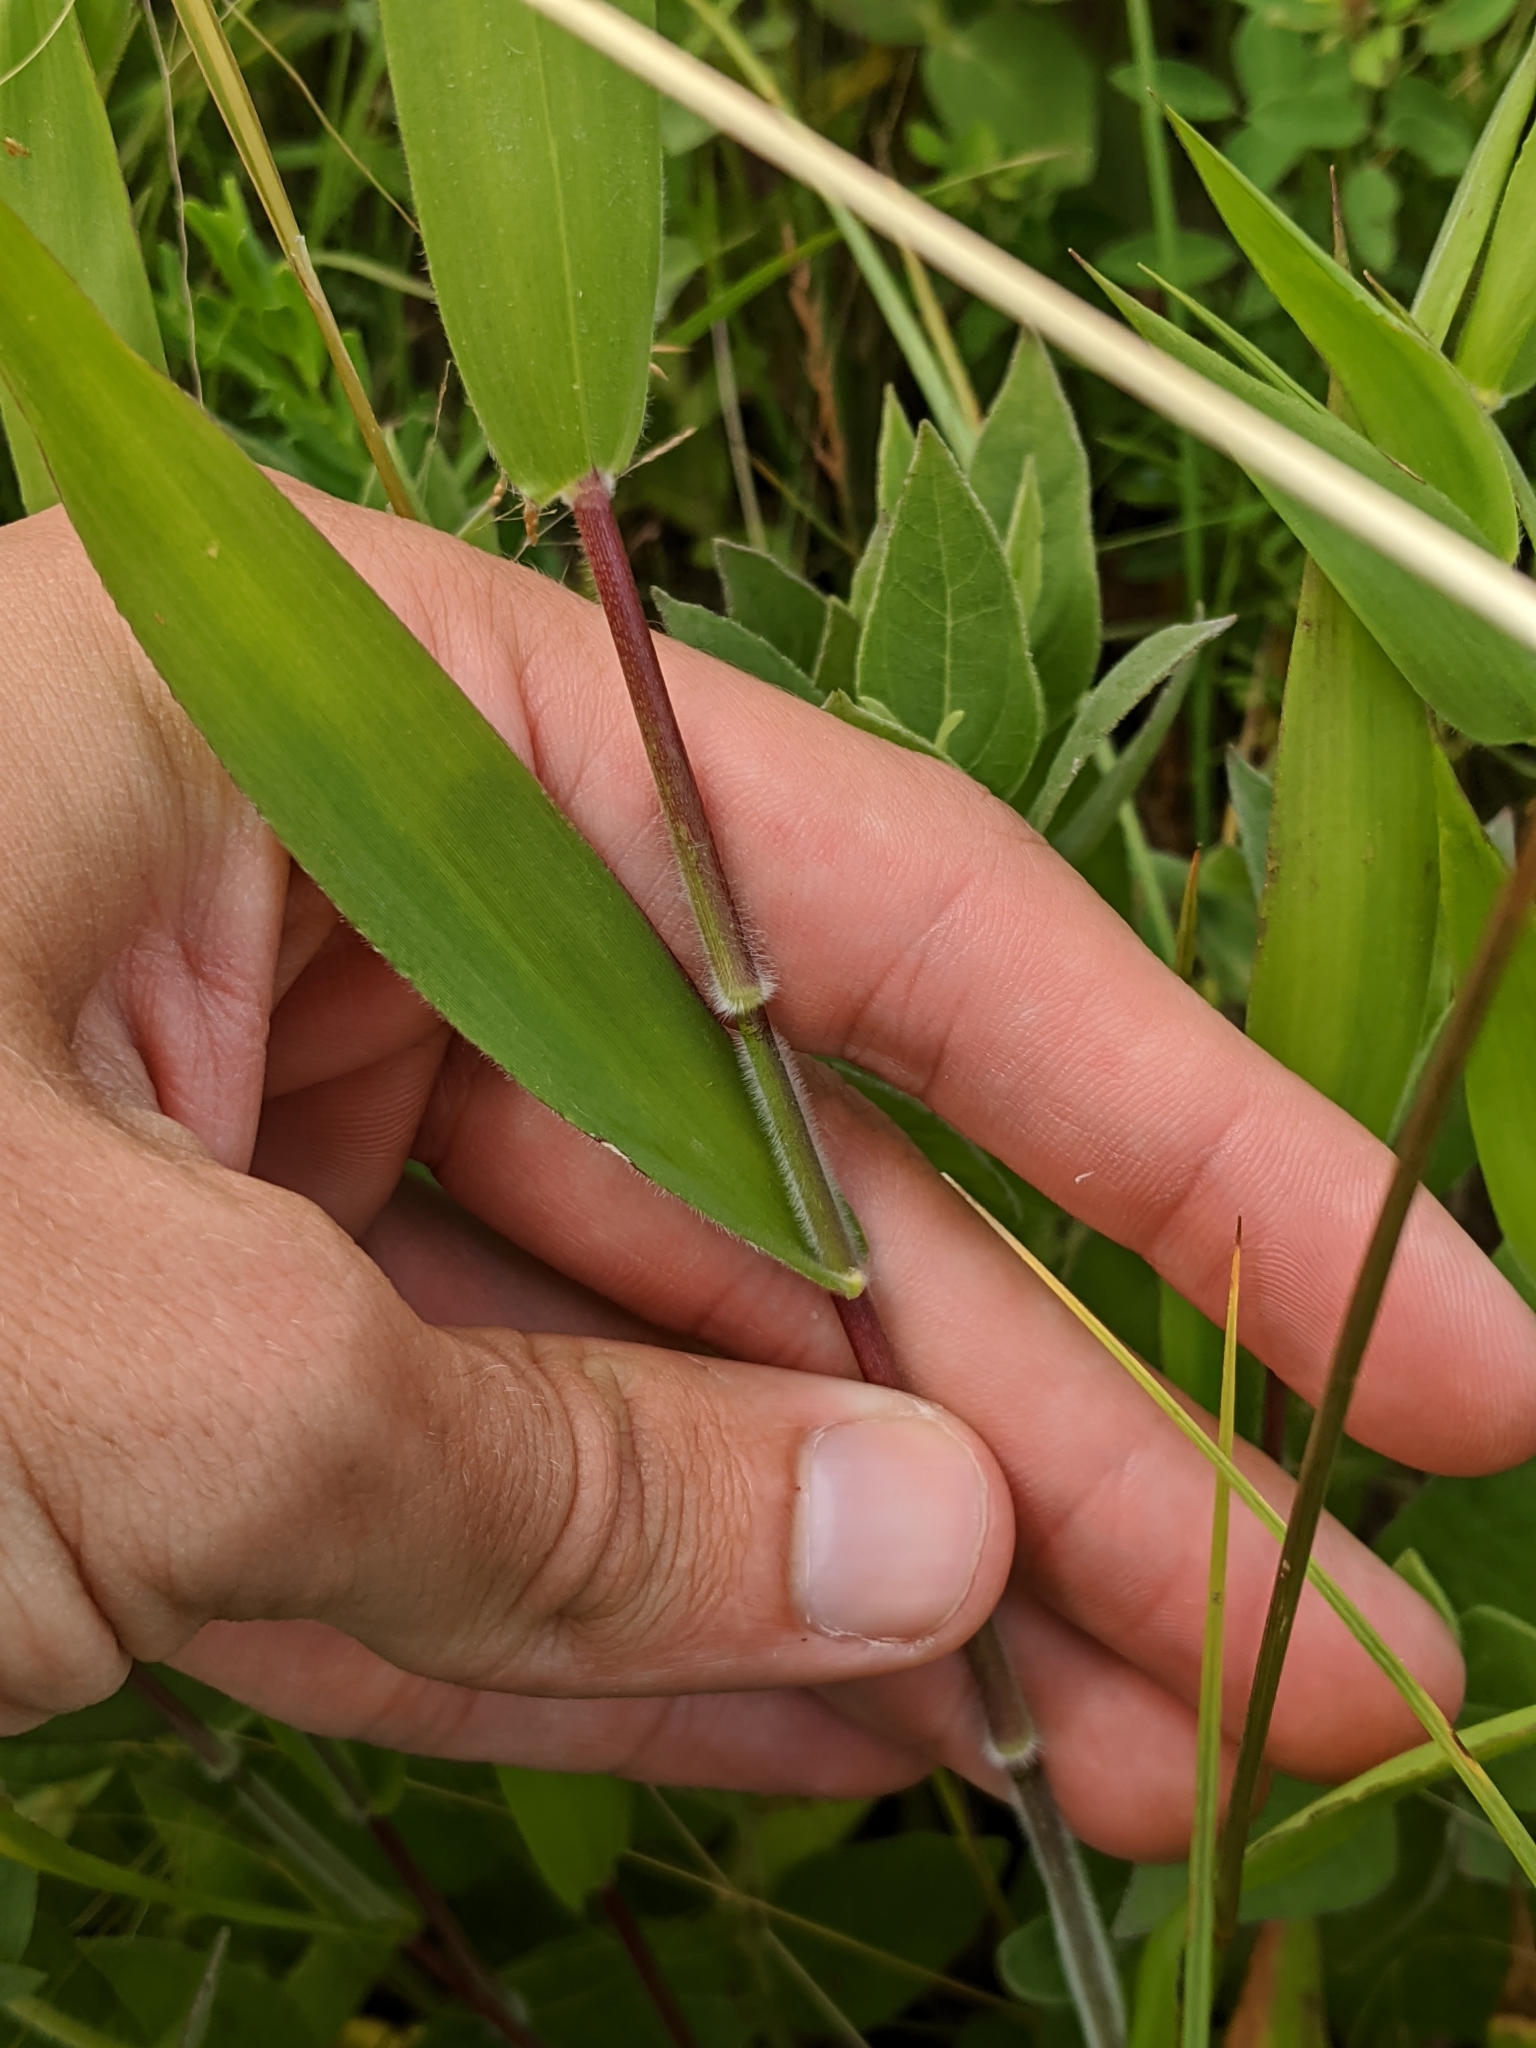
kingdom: Plantae
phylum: Tracheophyta
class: Liliopsida
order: Poales
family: Poaceae
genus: Dichanthelium
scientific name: Dichanthelium scoparium
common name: Velvety panic grass
